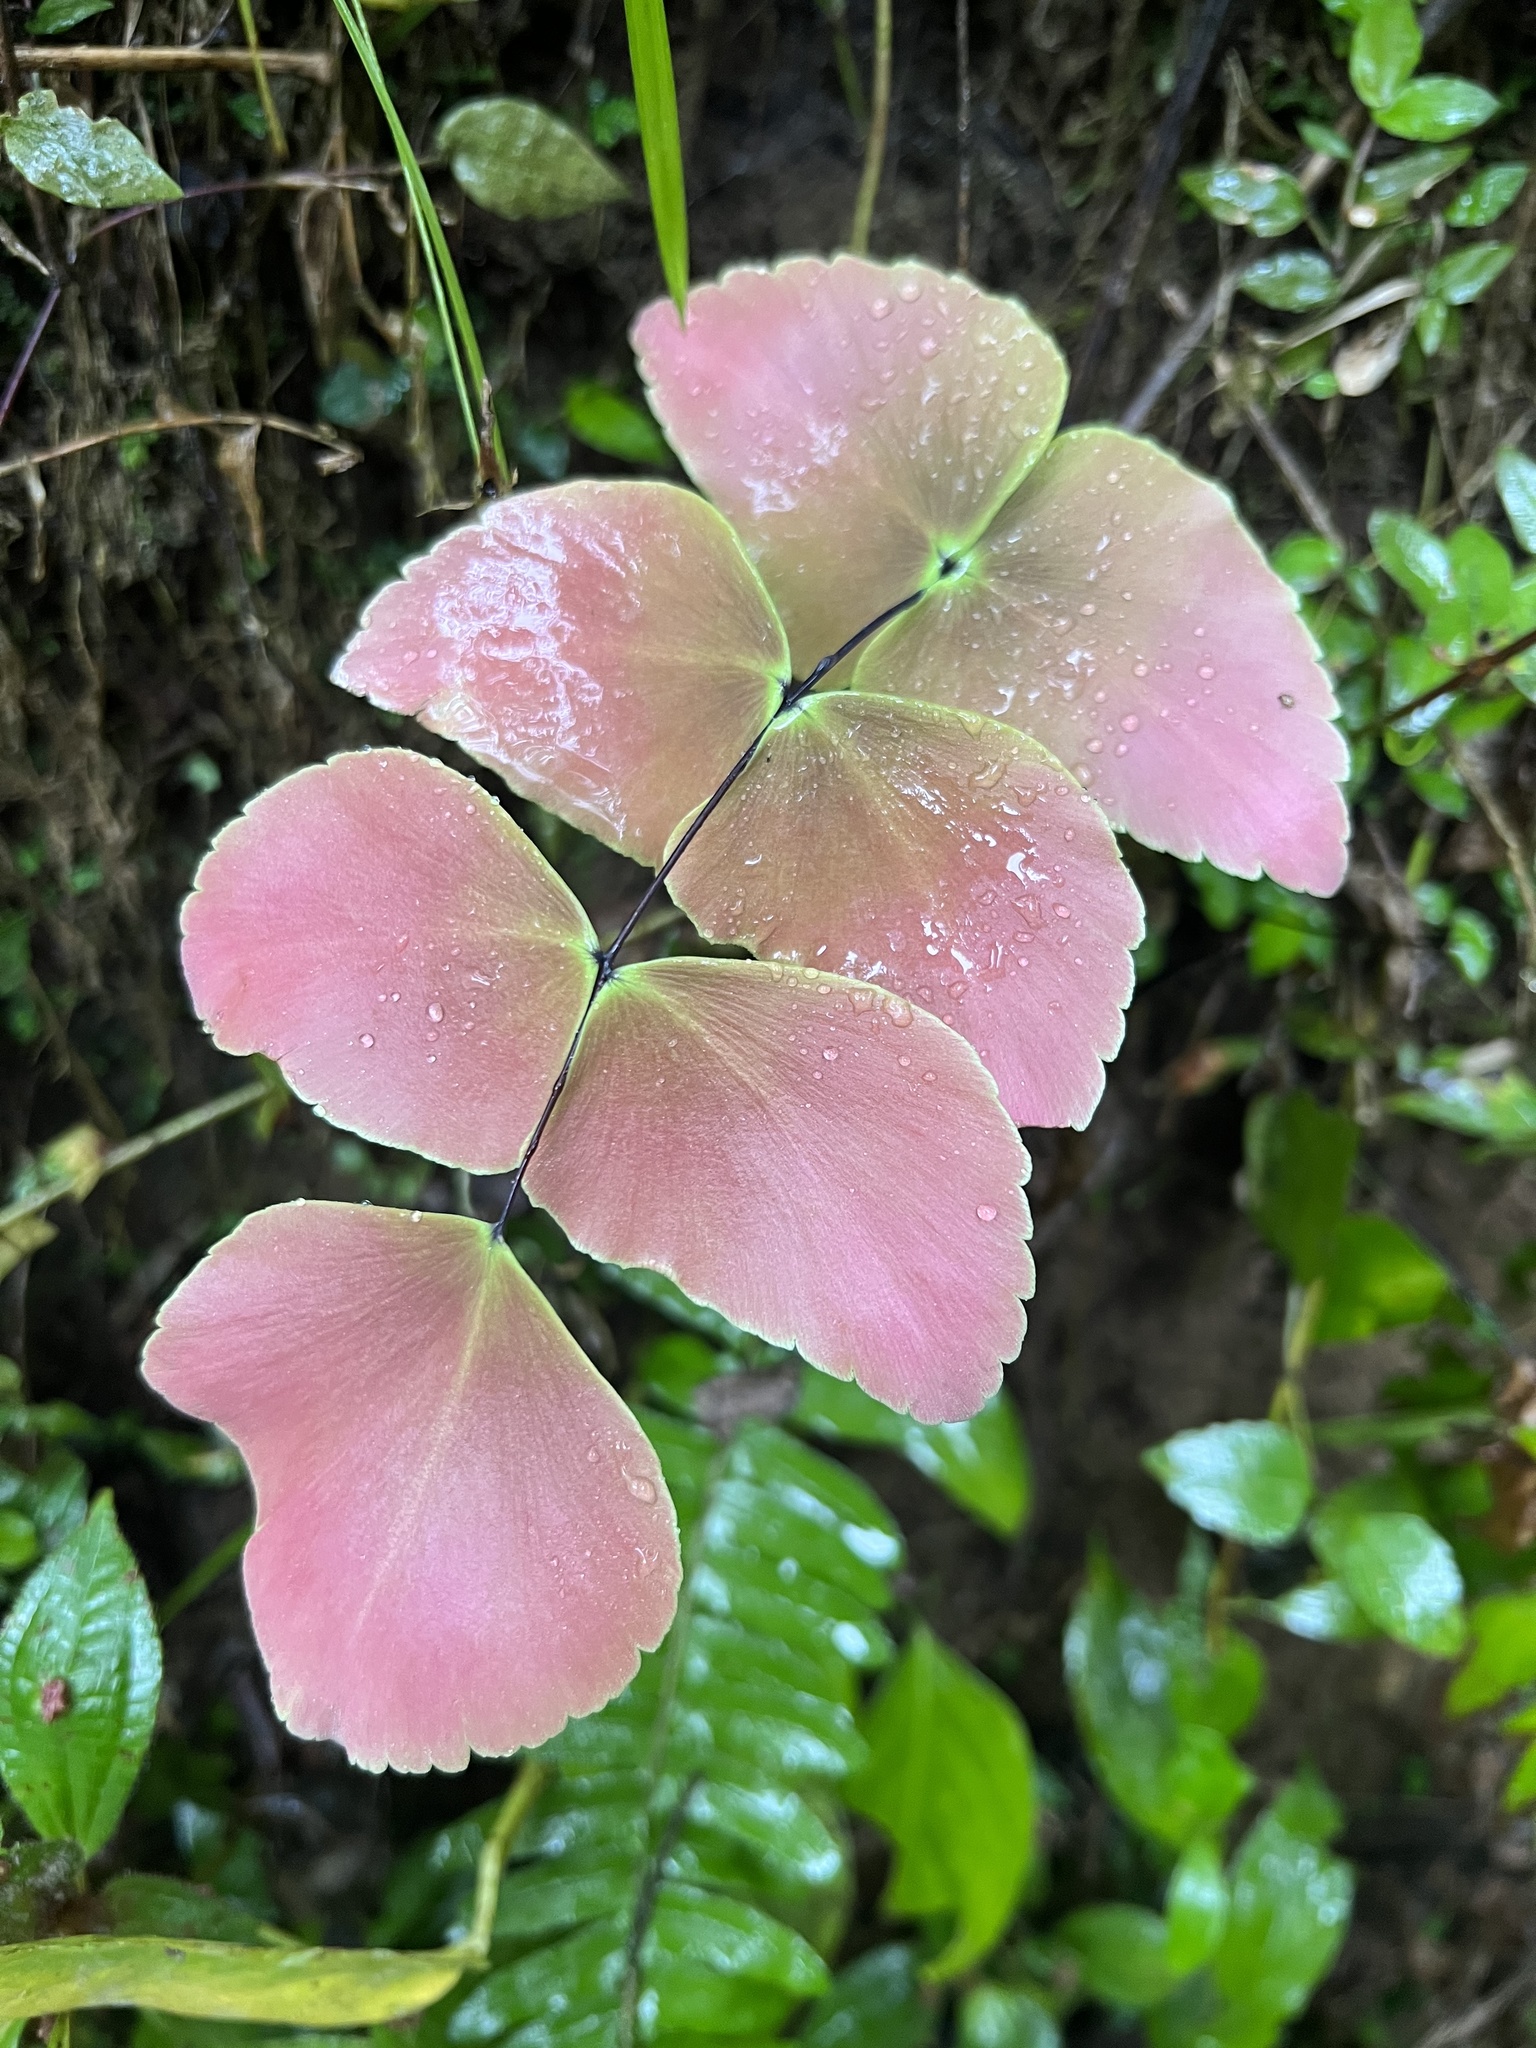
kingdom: Plantae
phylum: Tracheophyta
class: Polypodiopsida
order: Polypodiales
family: Pteridaceae
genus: Adiantum
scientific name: Adiantum macrophyllum
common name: Largeleaf maidenhair
